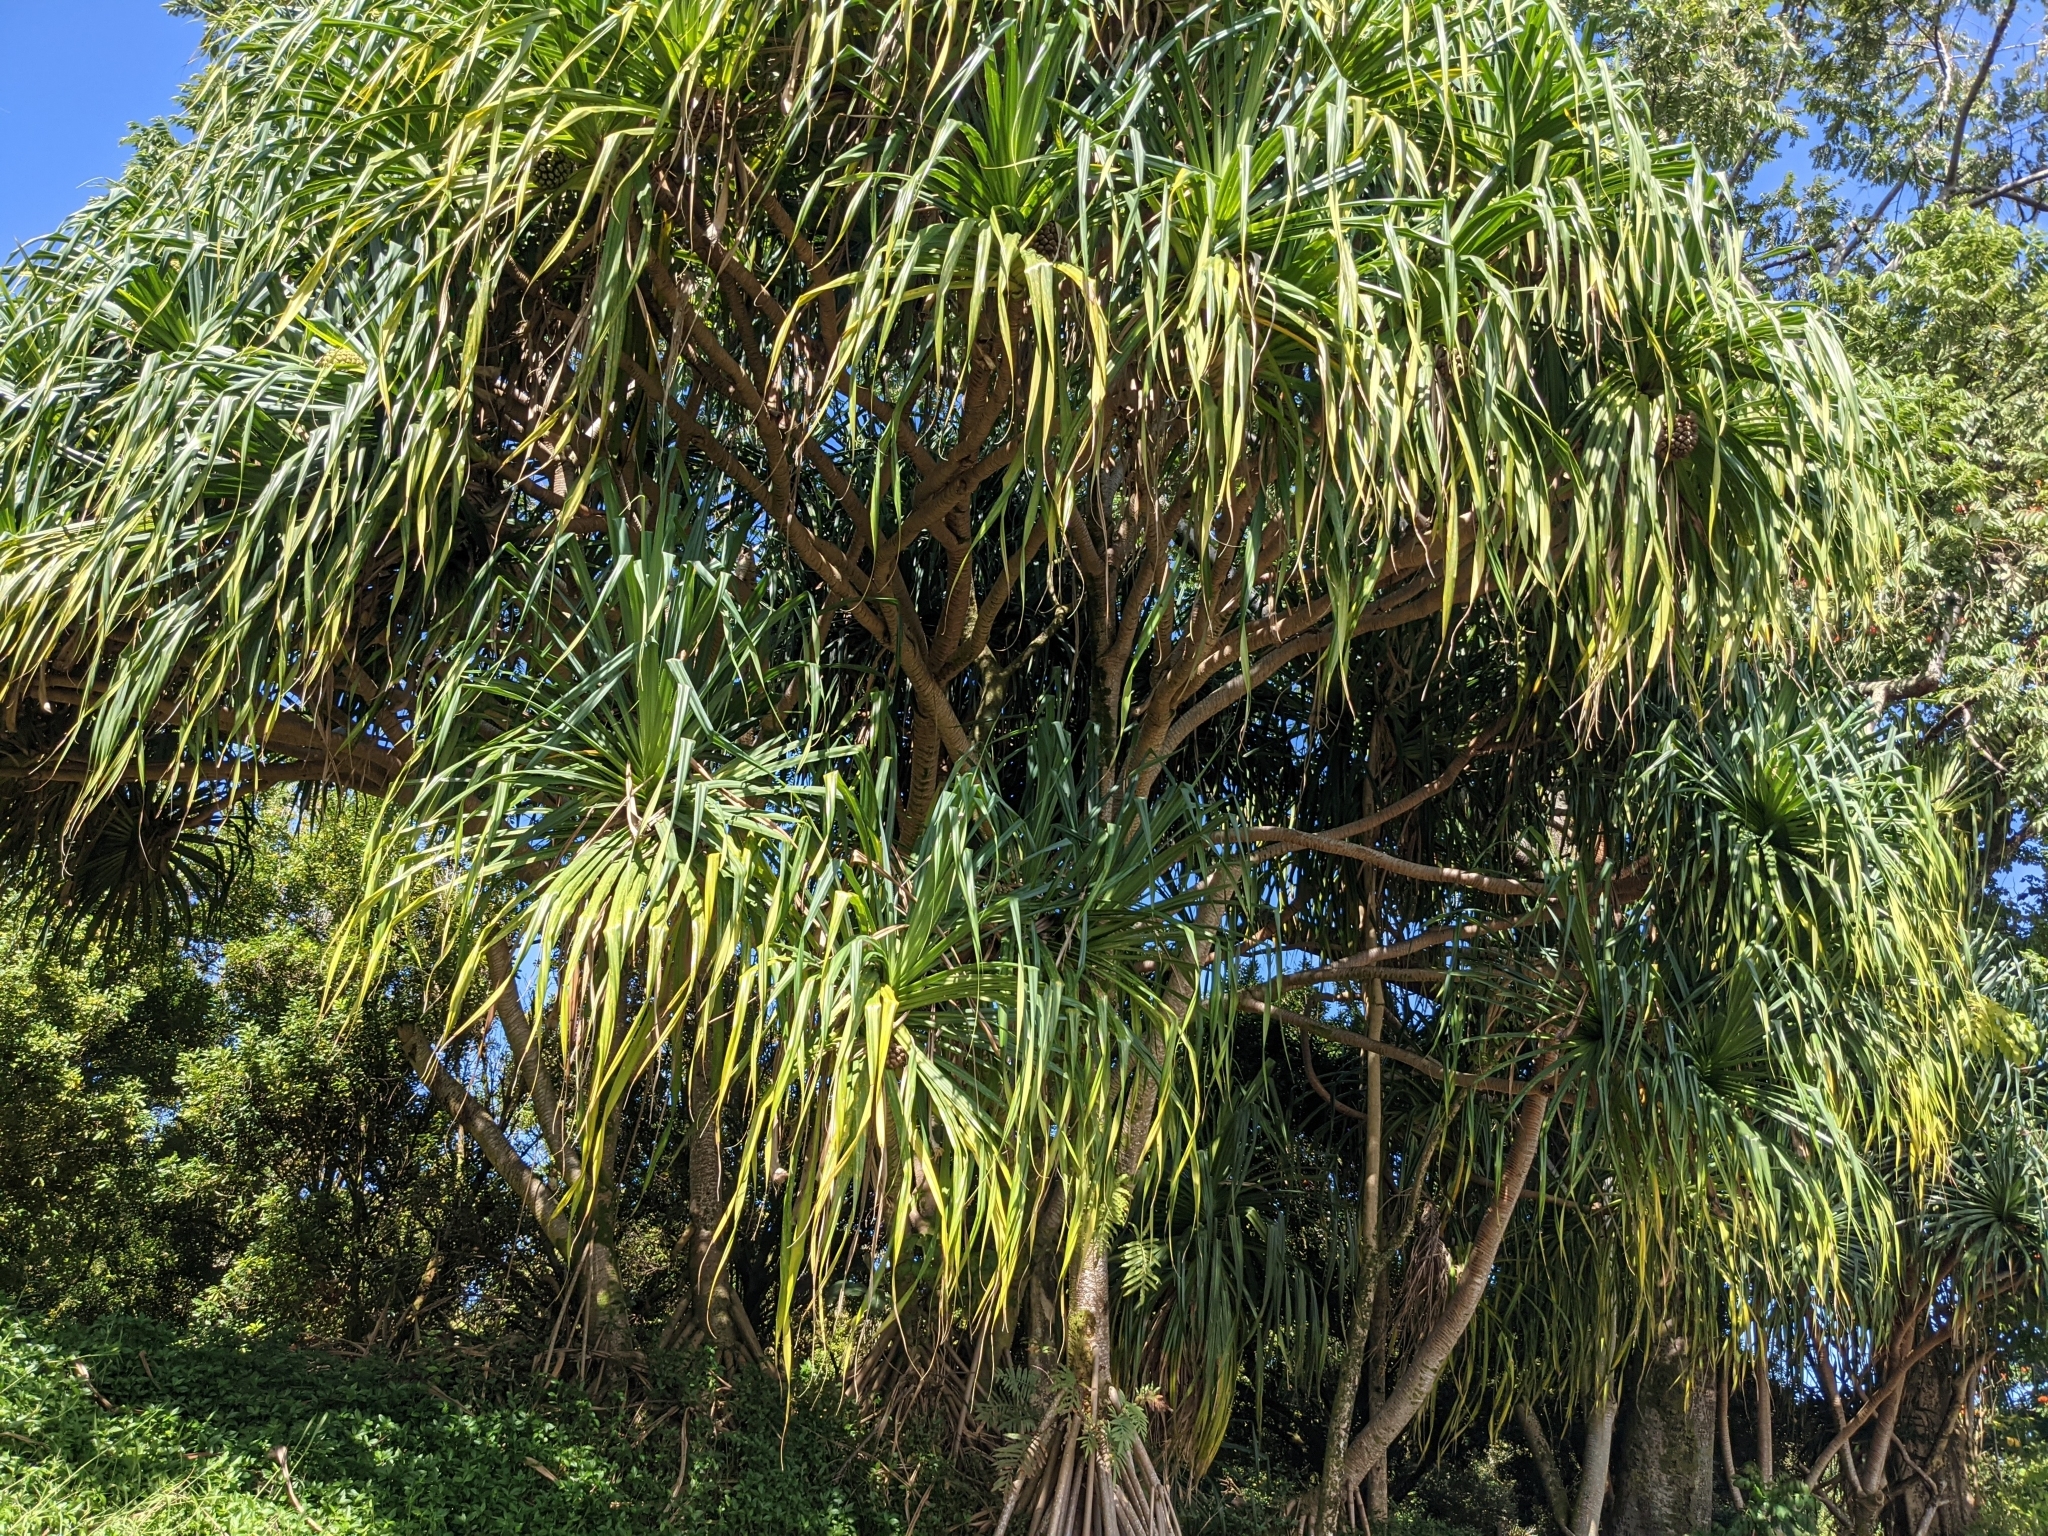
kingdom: Plantae
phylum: Tracheophyta
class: Liliopsida
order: Pandanales
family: Pandanaceae
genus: Pandanus
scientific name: Pandanus tectorius
